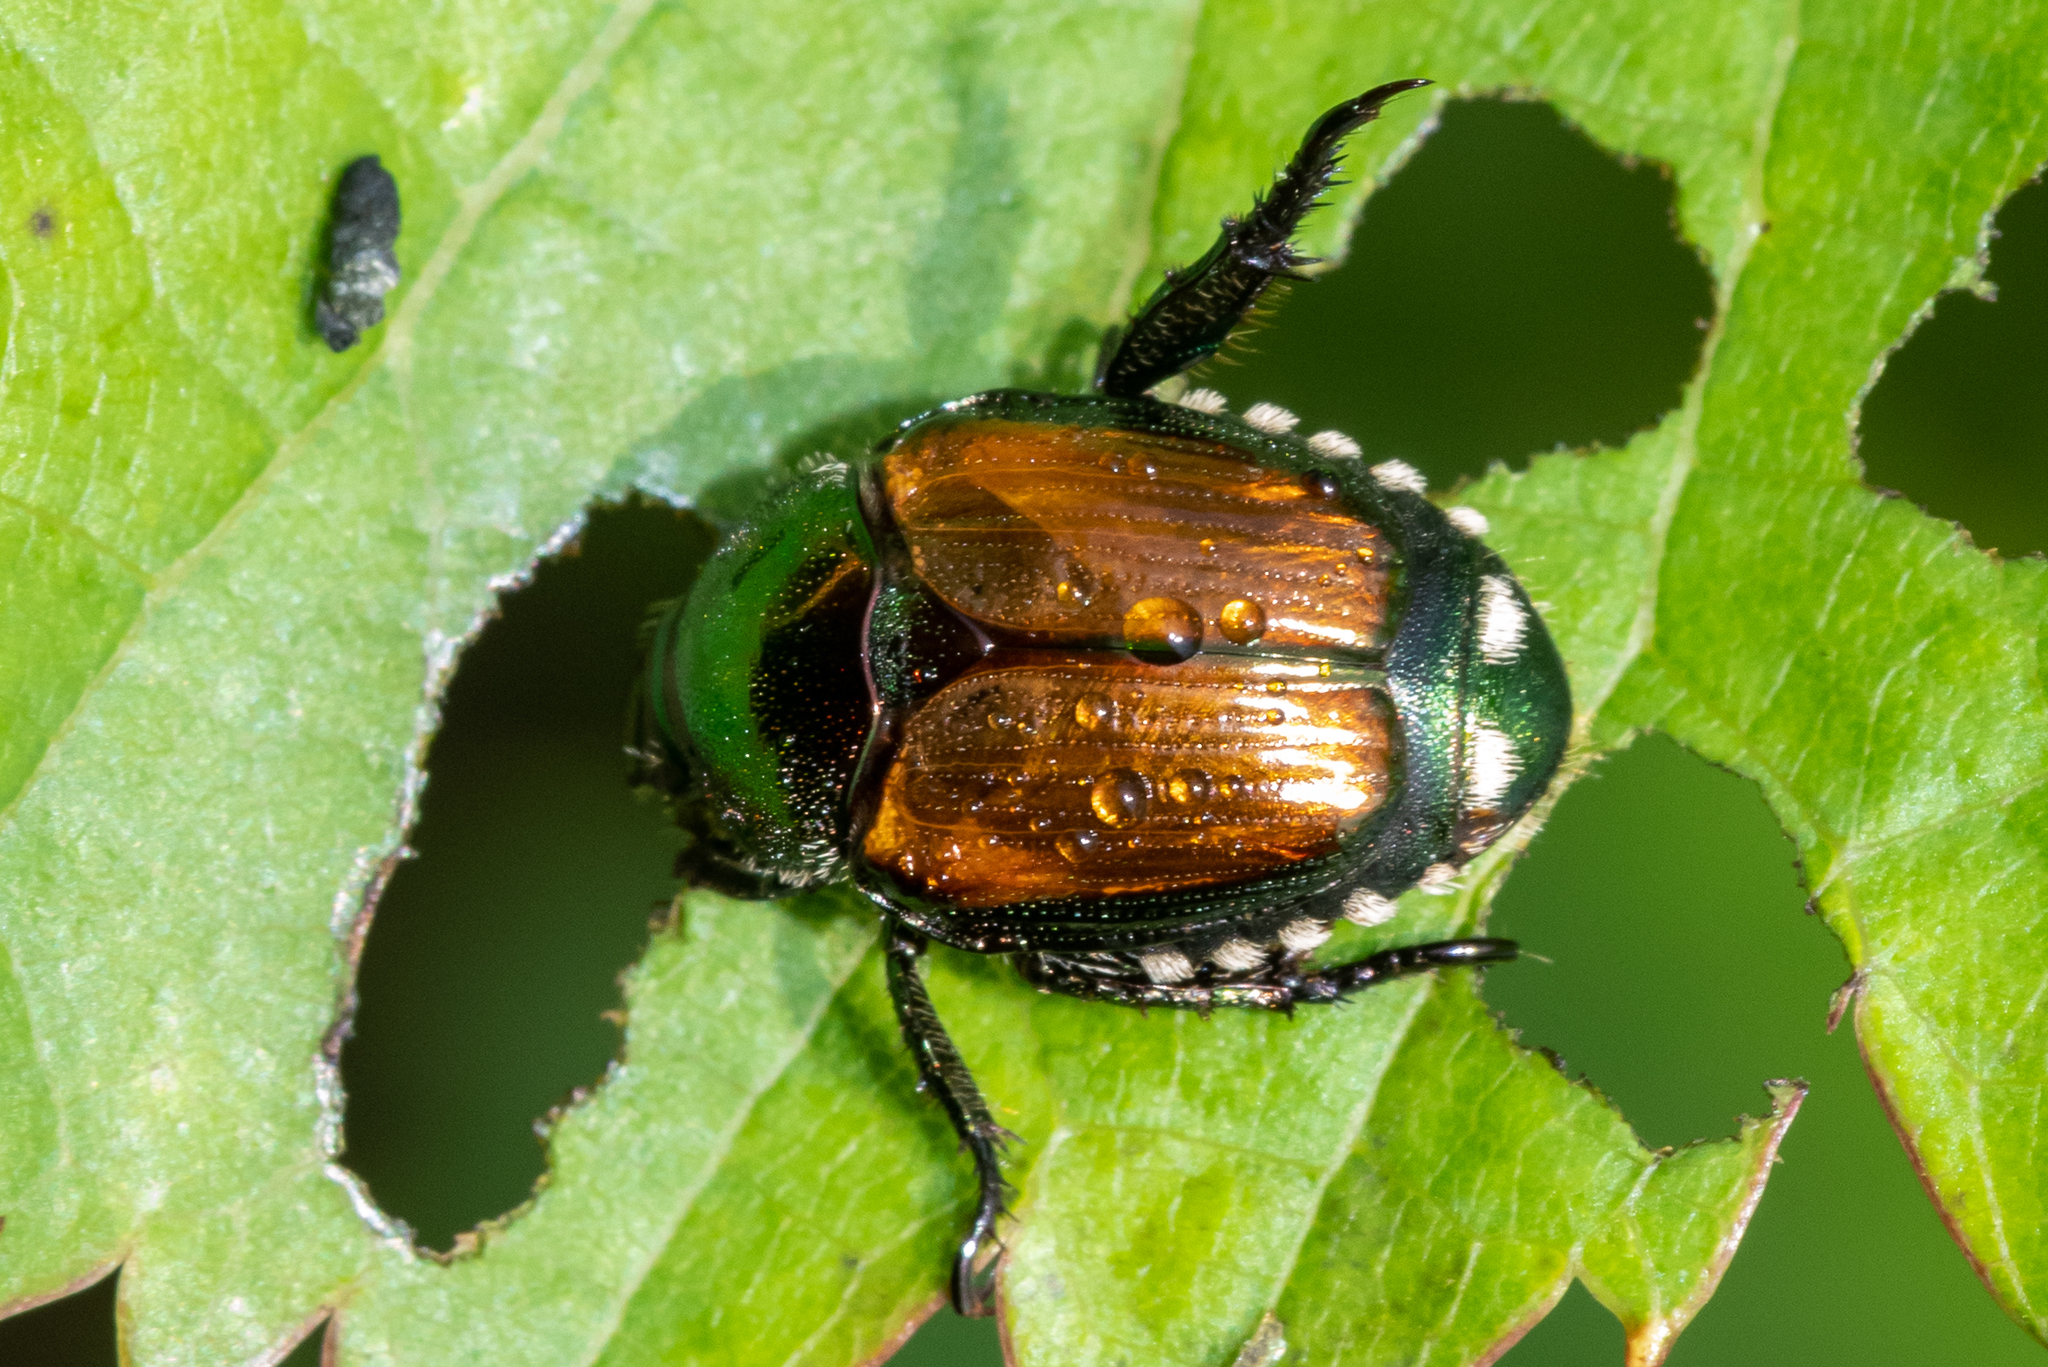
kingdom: Animalia
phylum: Arthropoda
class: Insecta
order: Coleoptera
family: Scarabaeidae
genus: Popillia
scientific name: Popillia japonica
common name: Japanese beetle
